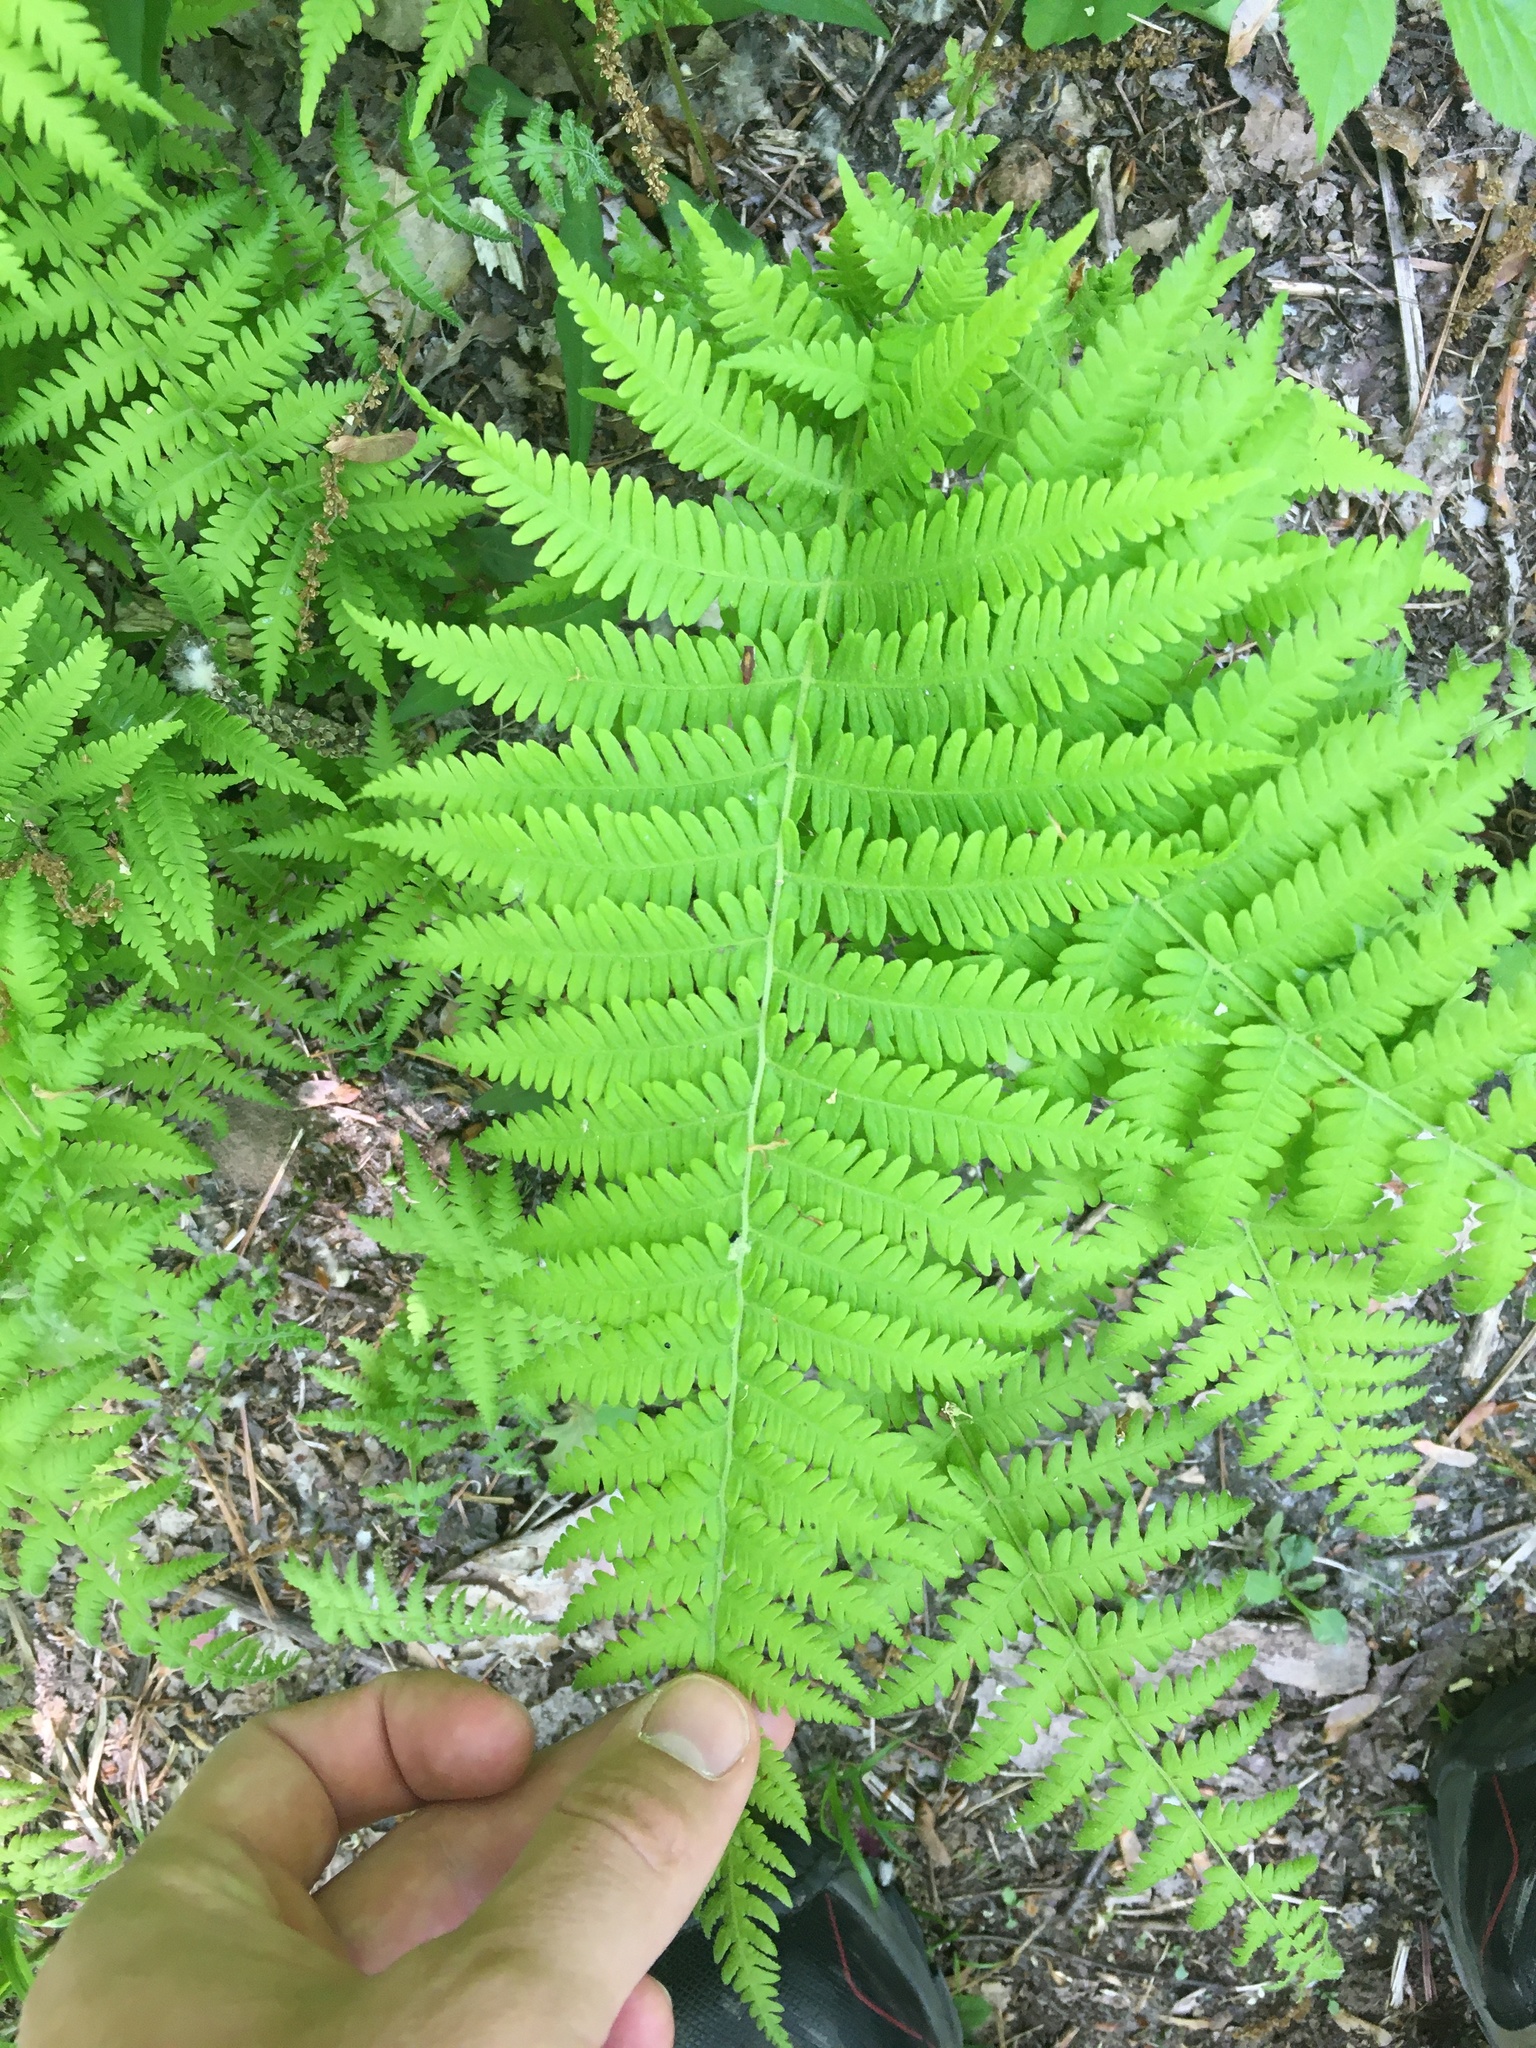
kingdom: Plantae
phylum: Tracheophyta
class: Polypodiopsida
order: Polypodiales
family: Thelypteridaceae
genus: Amauropelta
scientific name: Amauropelta noveboracensis
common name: New york fern
